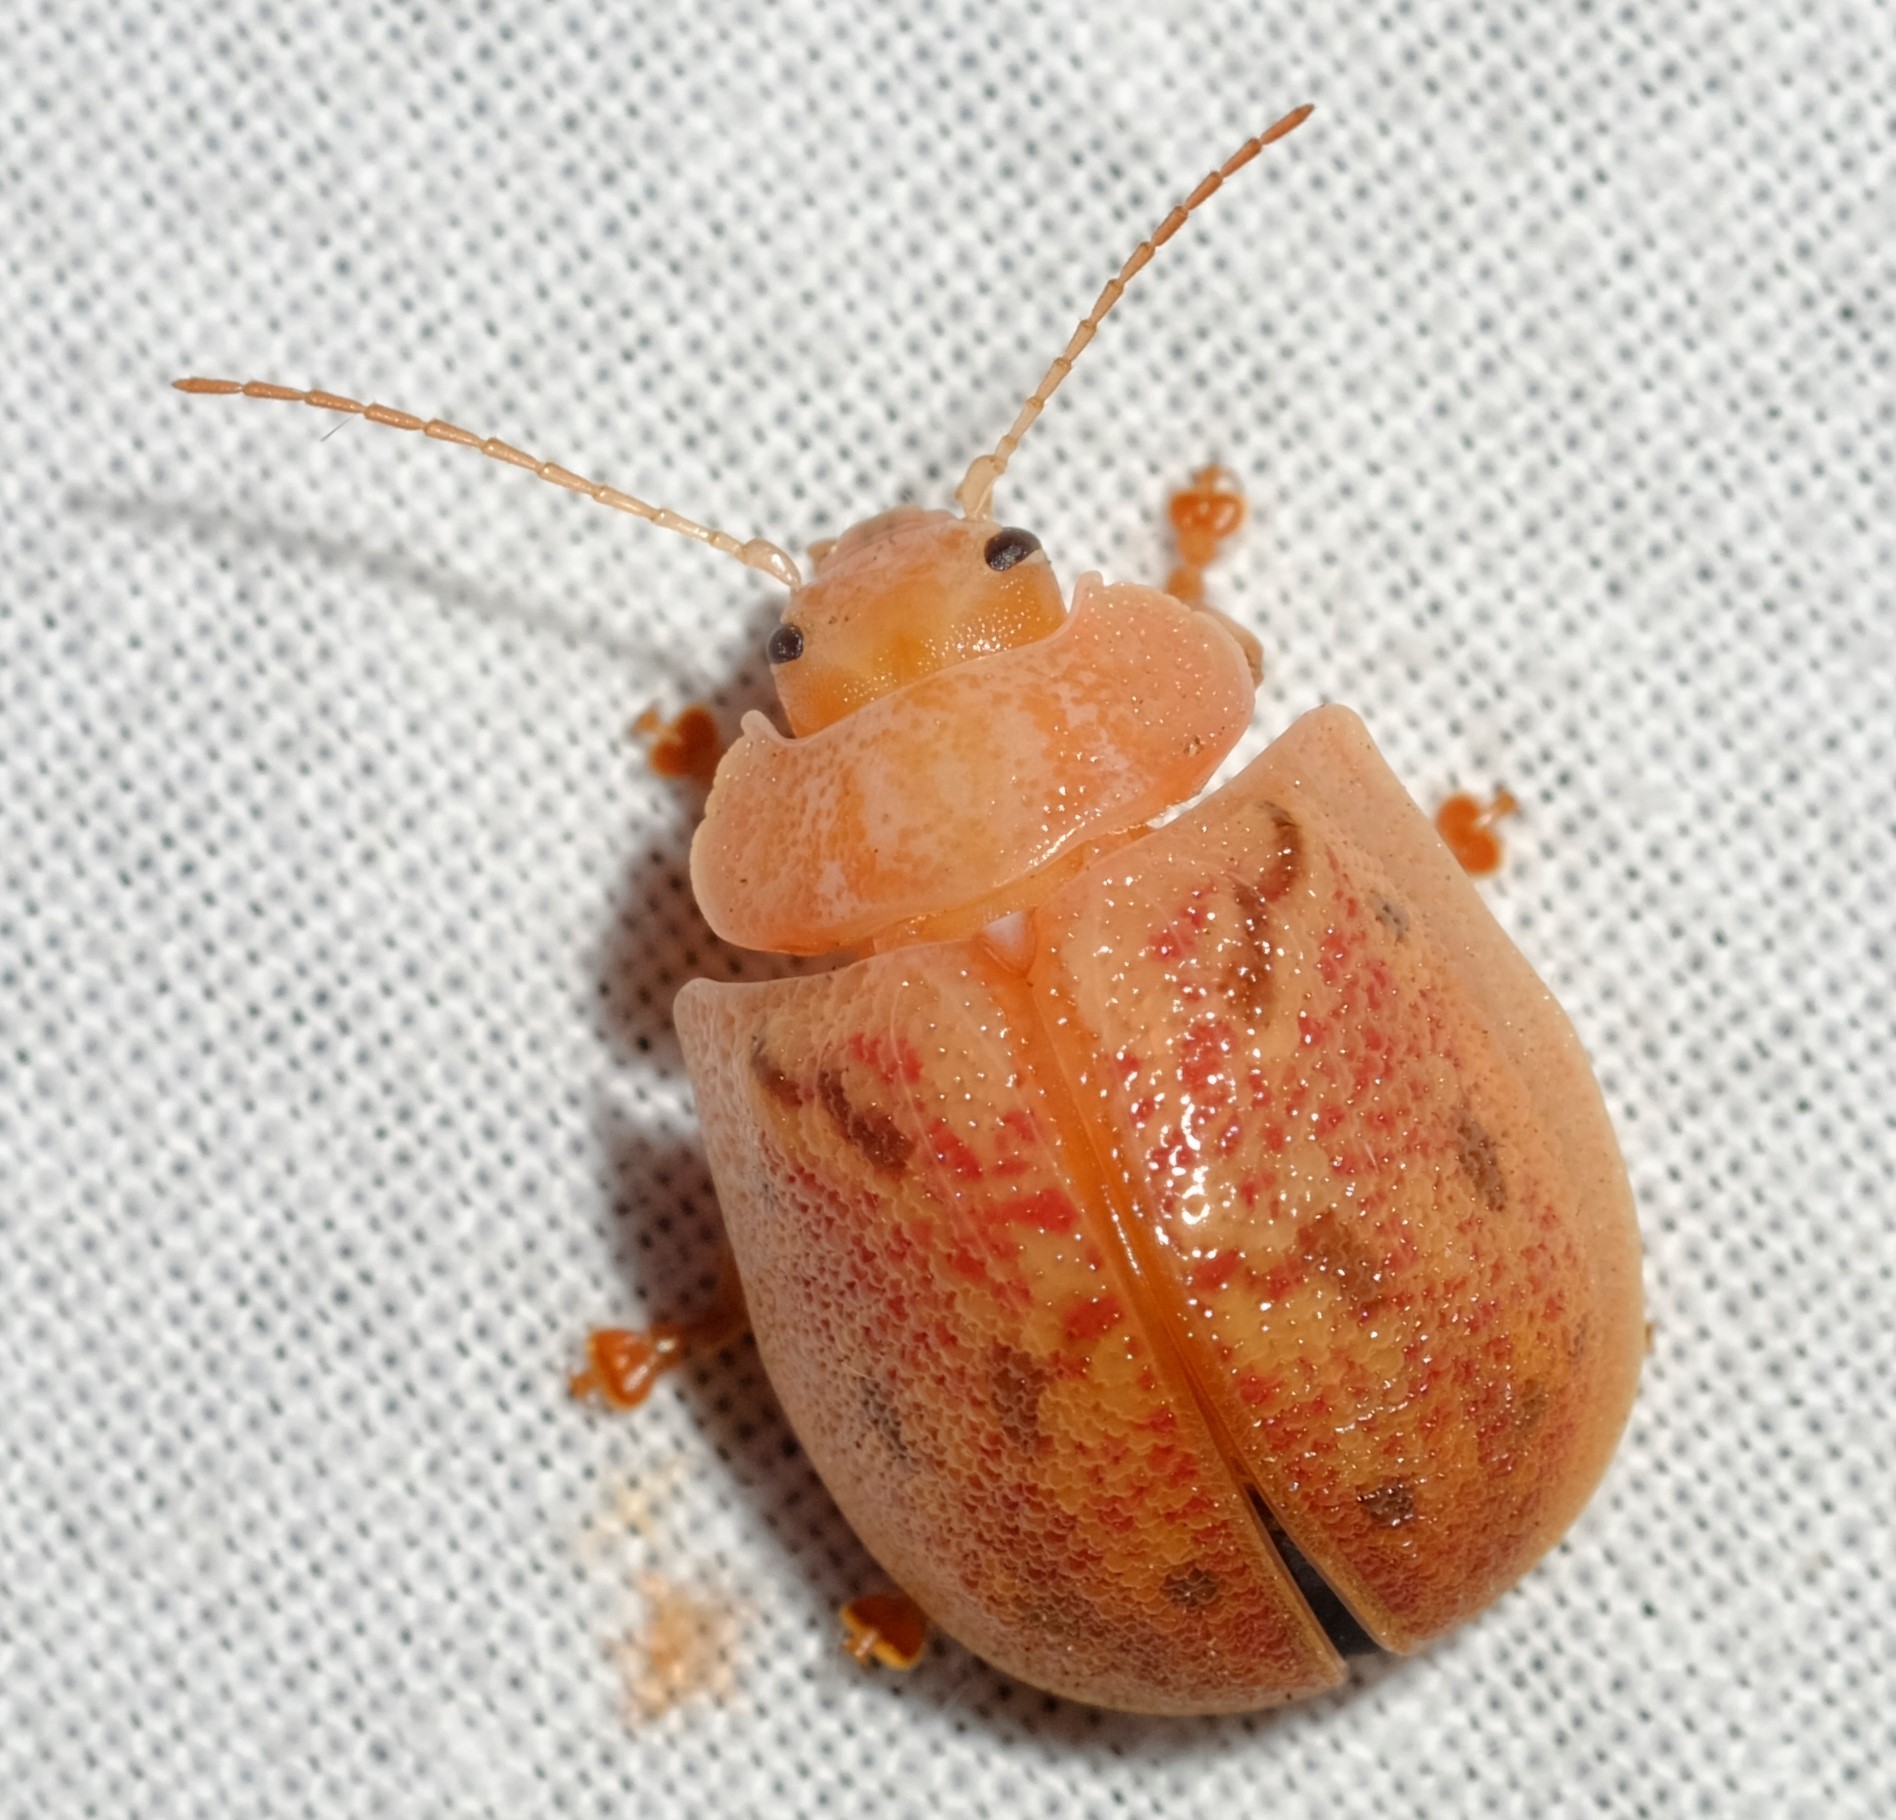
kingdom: Animalia
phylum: Arthropoda
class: Insecta
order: Coleoptera
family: Chrysomelidae
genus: Paropsis
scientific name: Paropsis charybdis
